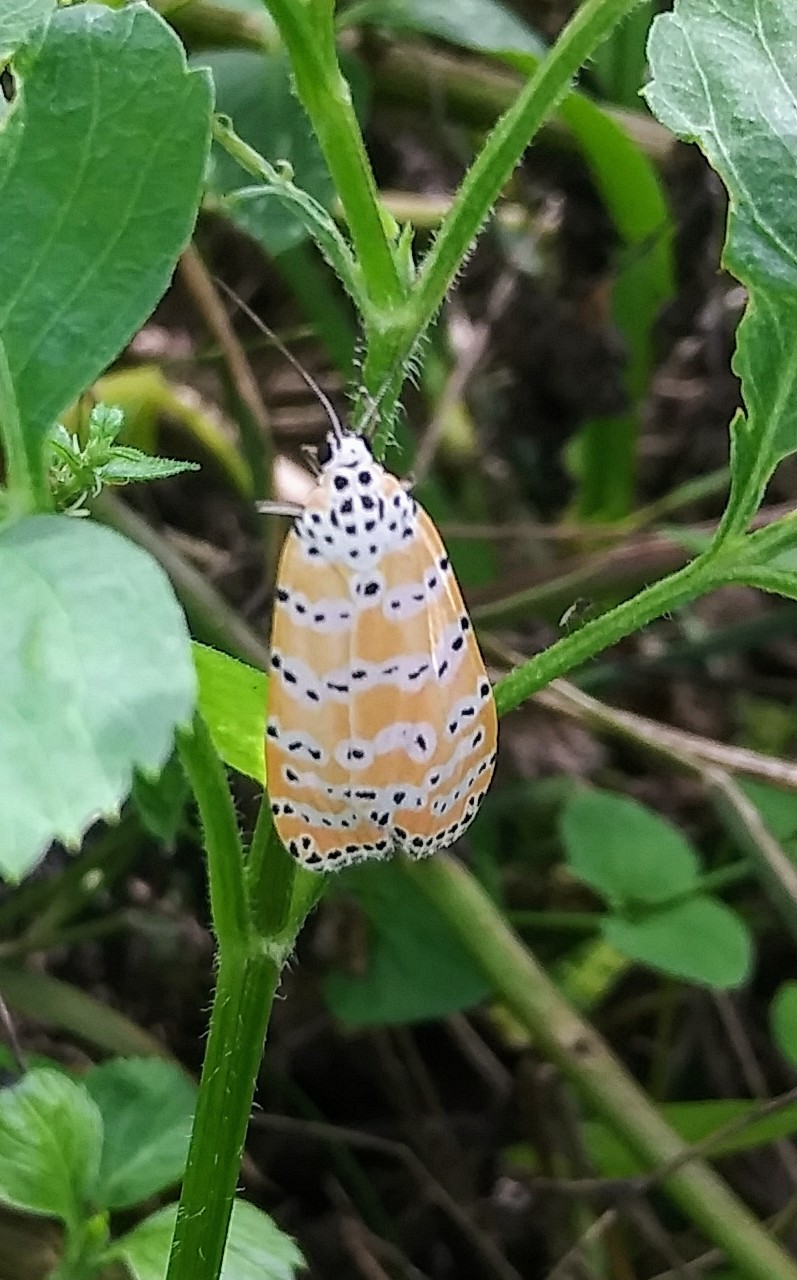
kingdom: Animalia
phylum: Arthropoda
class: Insecta
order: Lepidoptera
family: Erebidae
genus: Utetheisa
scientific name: Utetheisa ornatrix
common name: Beautiful utetheisa
